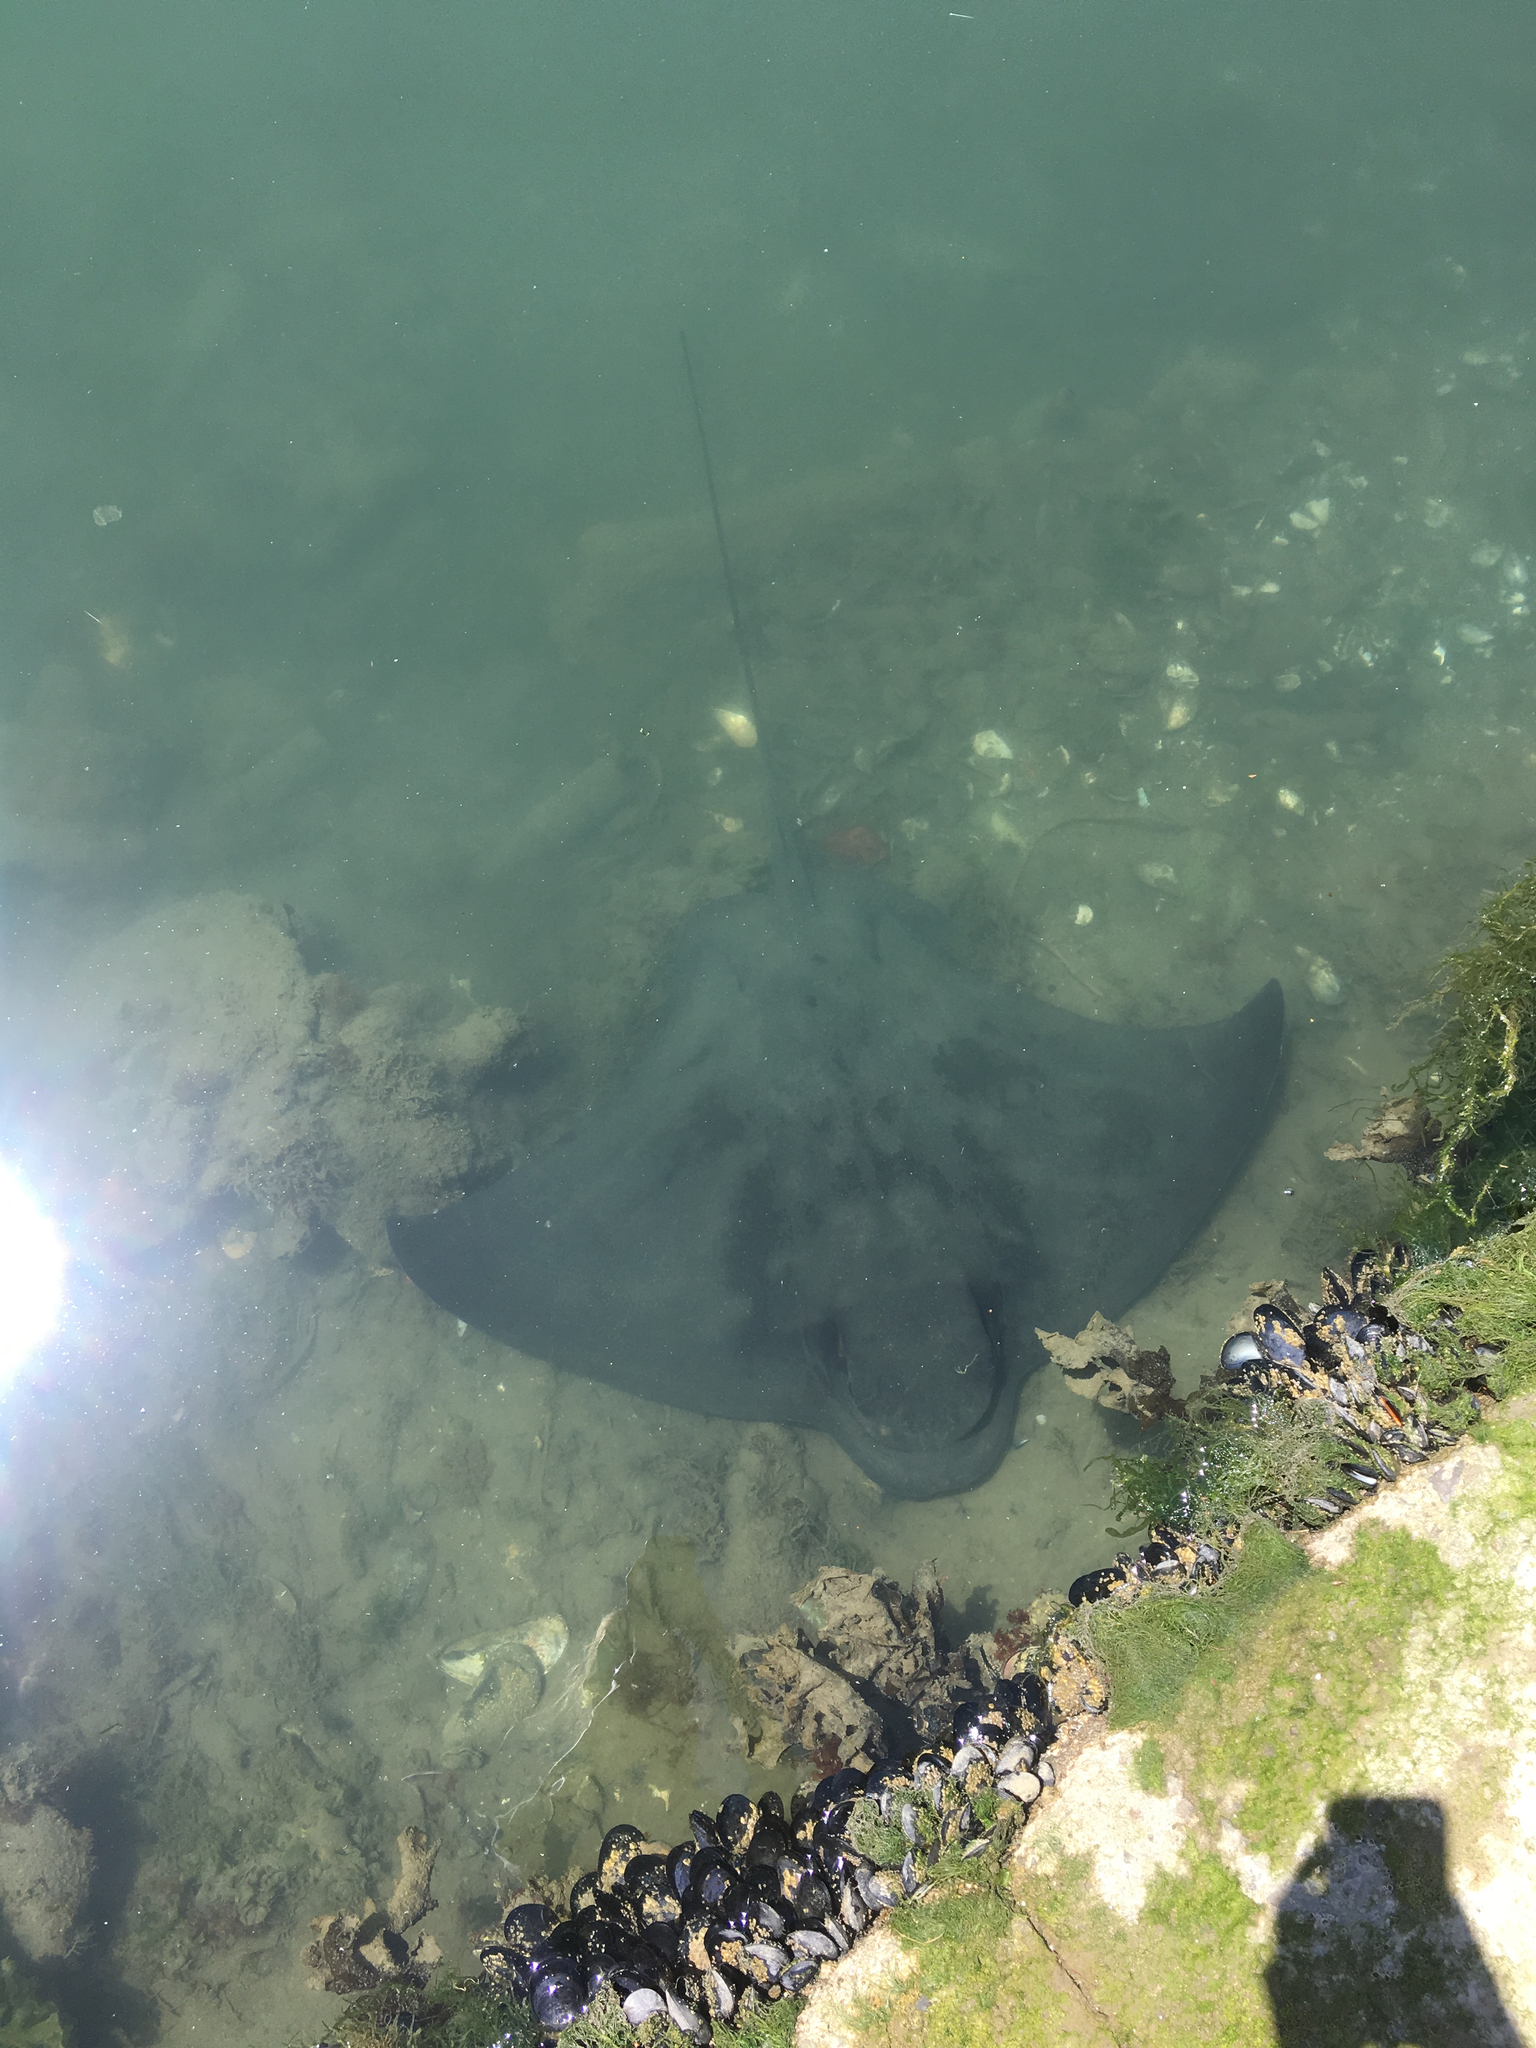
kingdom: Animalia
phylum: Chordata
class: Elasmobranchii
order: Myliobatiformes
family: Myliobatidae
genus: Myliobatis
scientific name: Myliobatis tenuicaudatus
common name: Eagle ray
